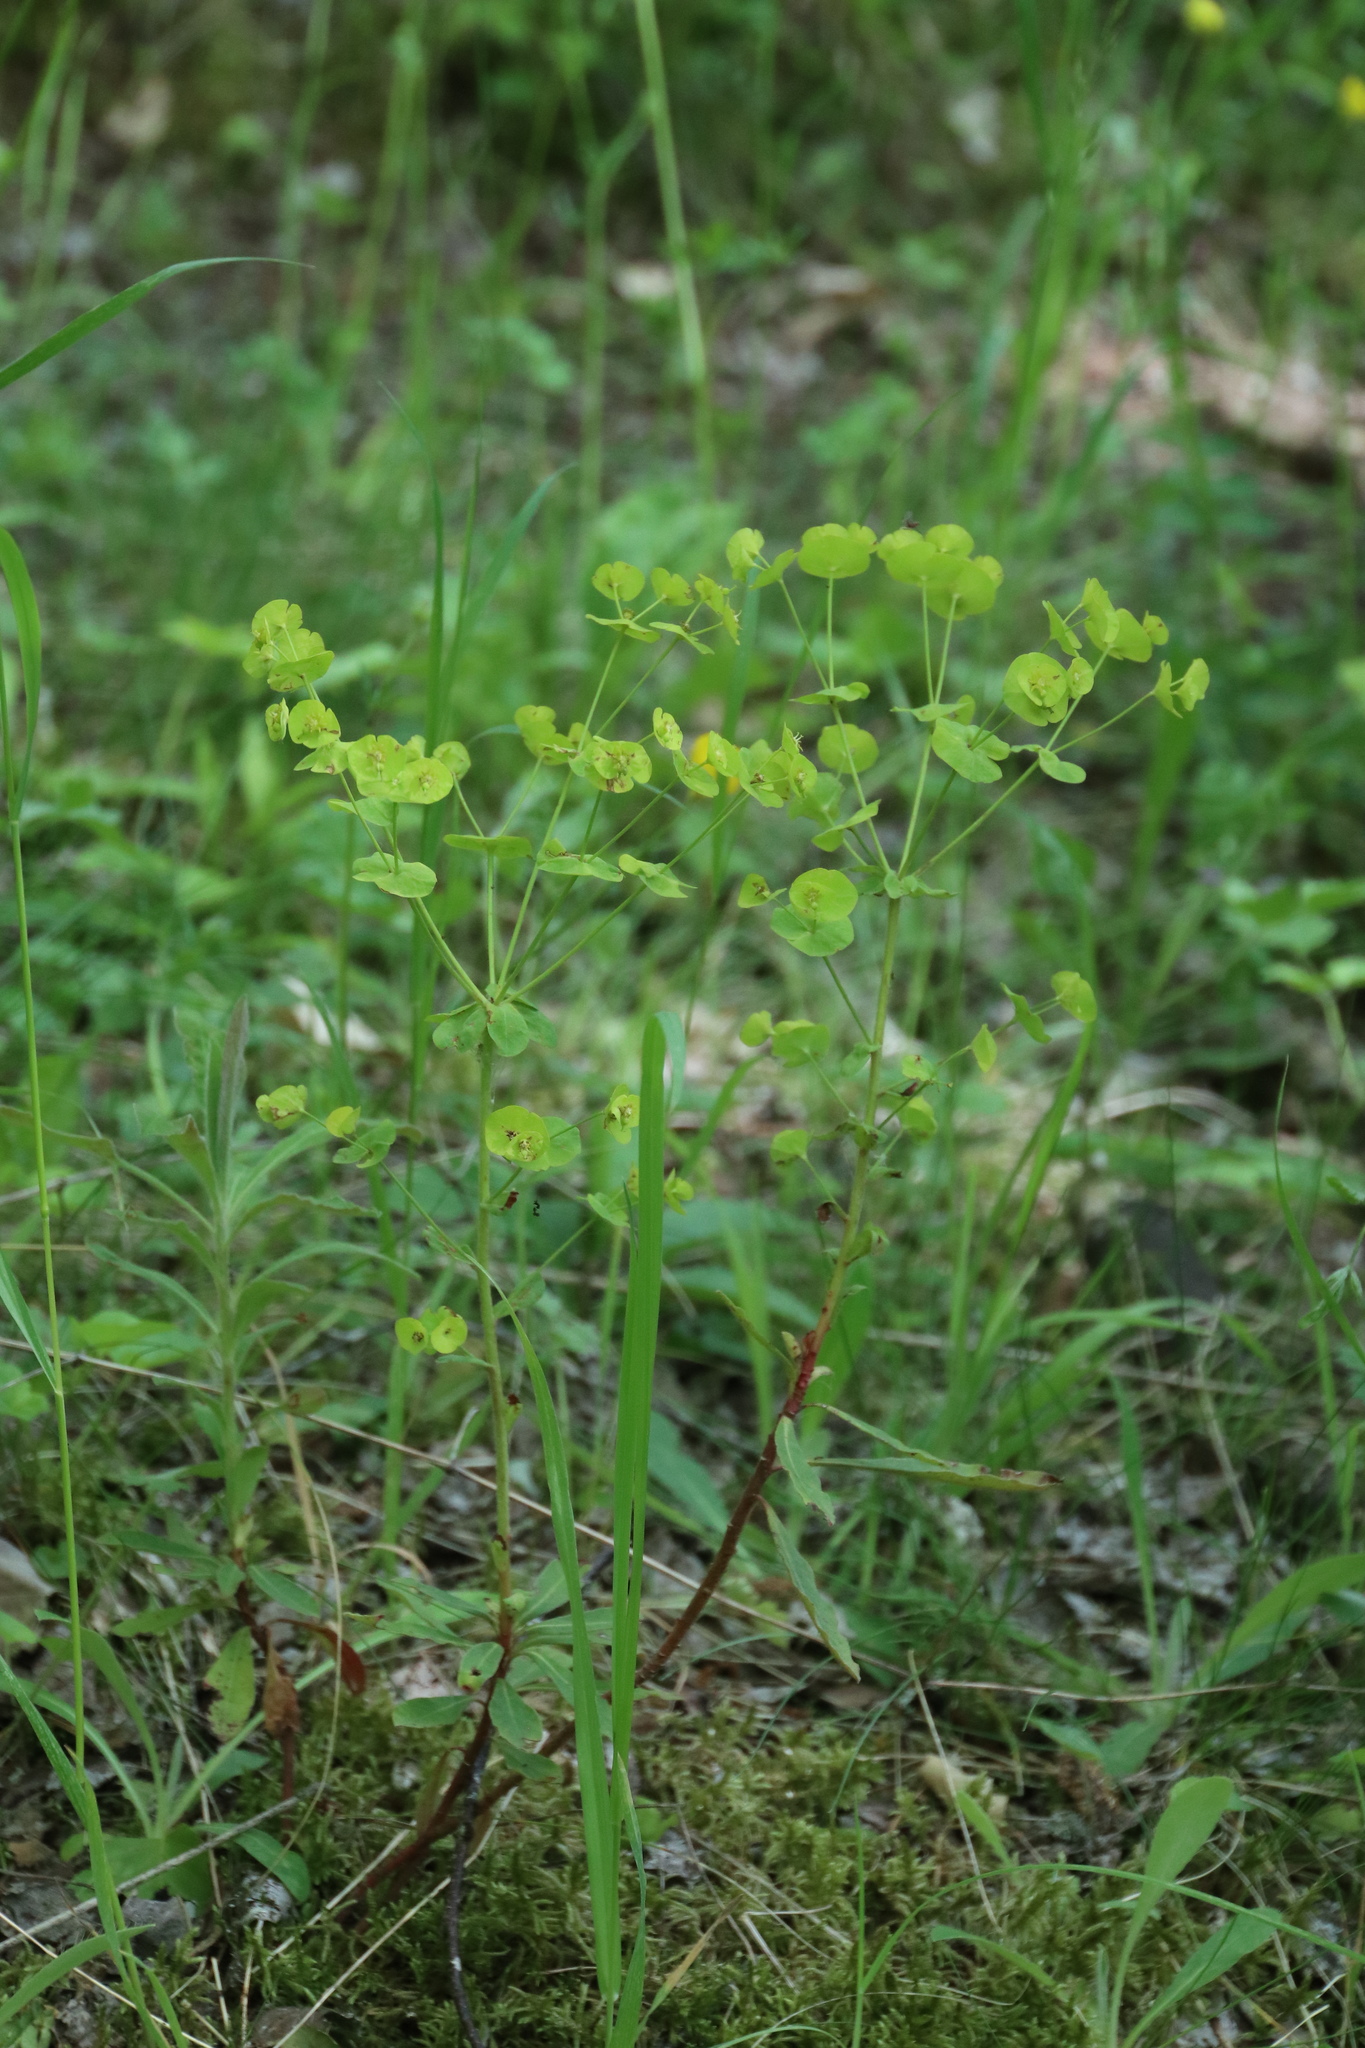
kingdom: Plantae
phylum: Tracheophyta
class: Magnoliopsida
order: Malpighiales
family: Euphorbiaceae
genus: Euphorbia
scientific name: Euphorbia amygdaloides
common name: Wood spurge
